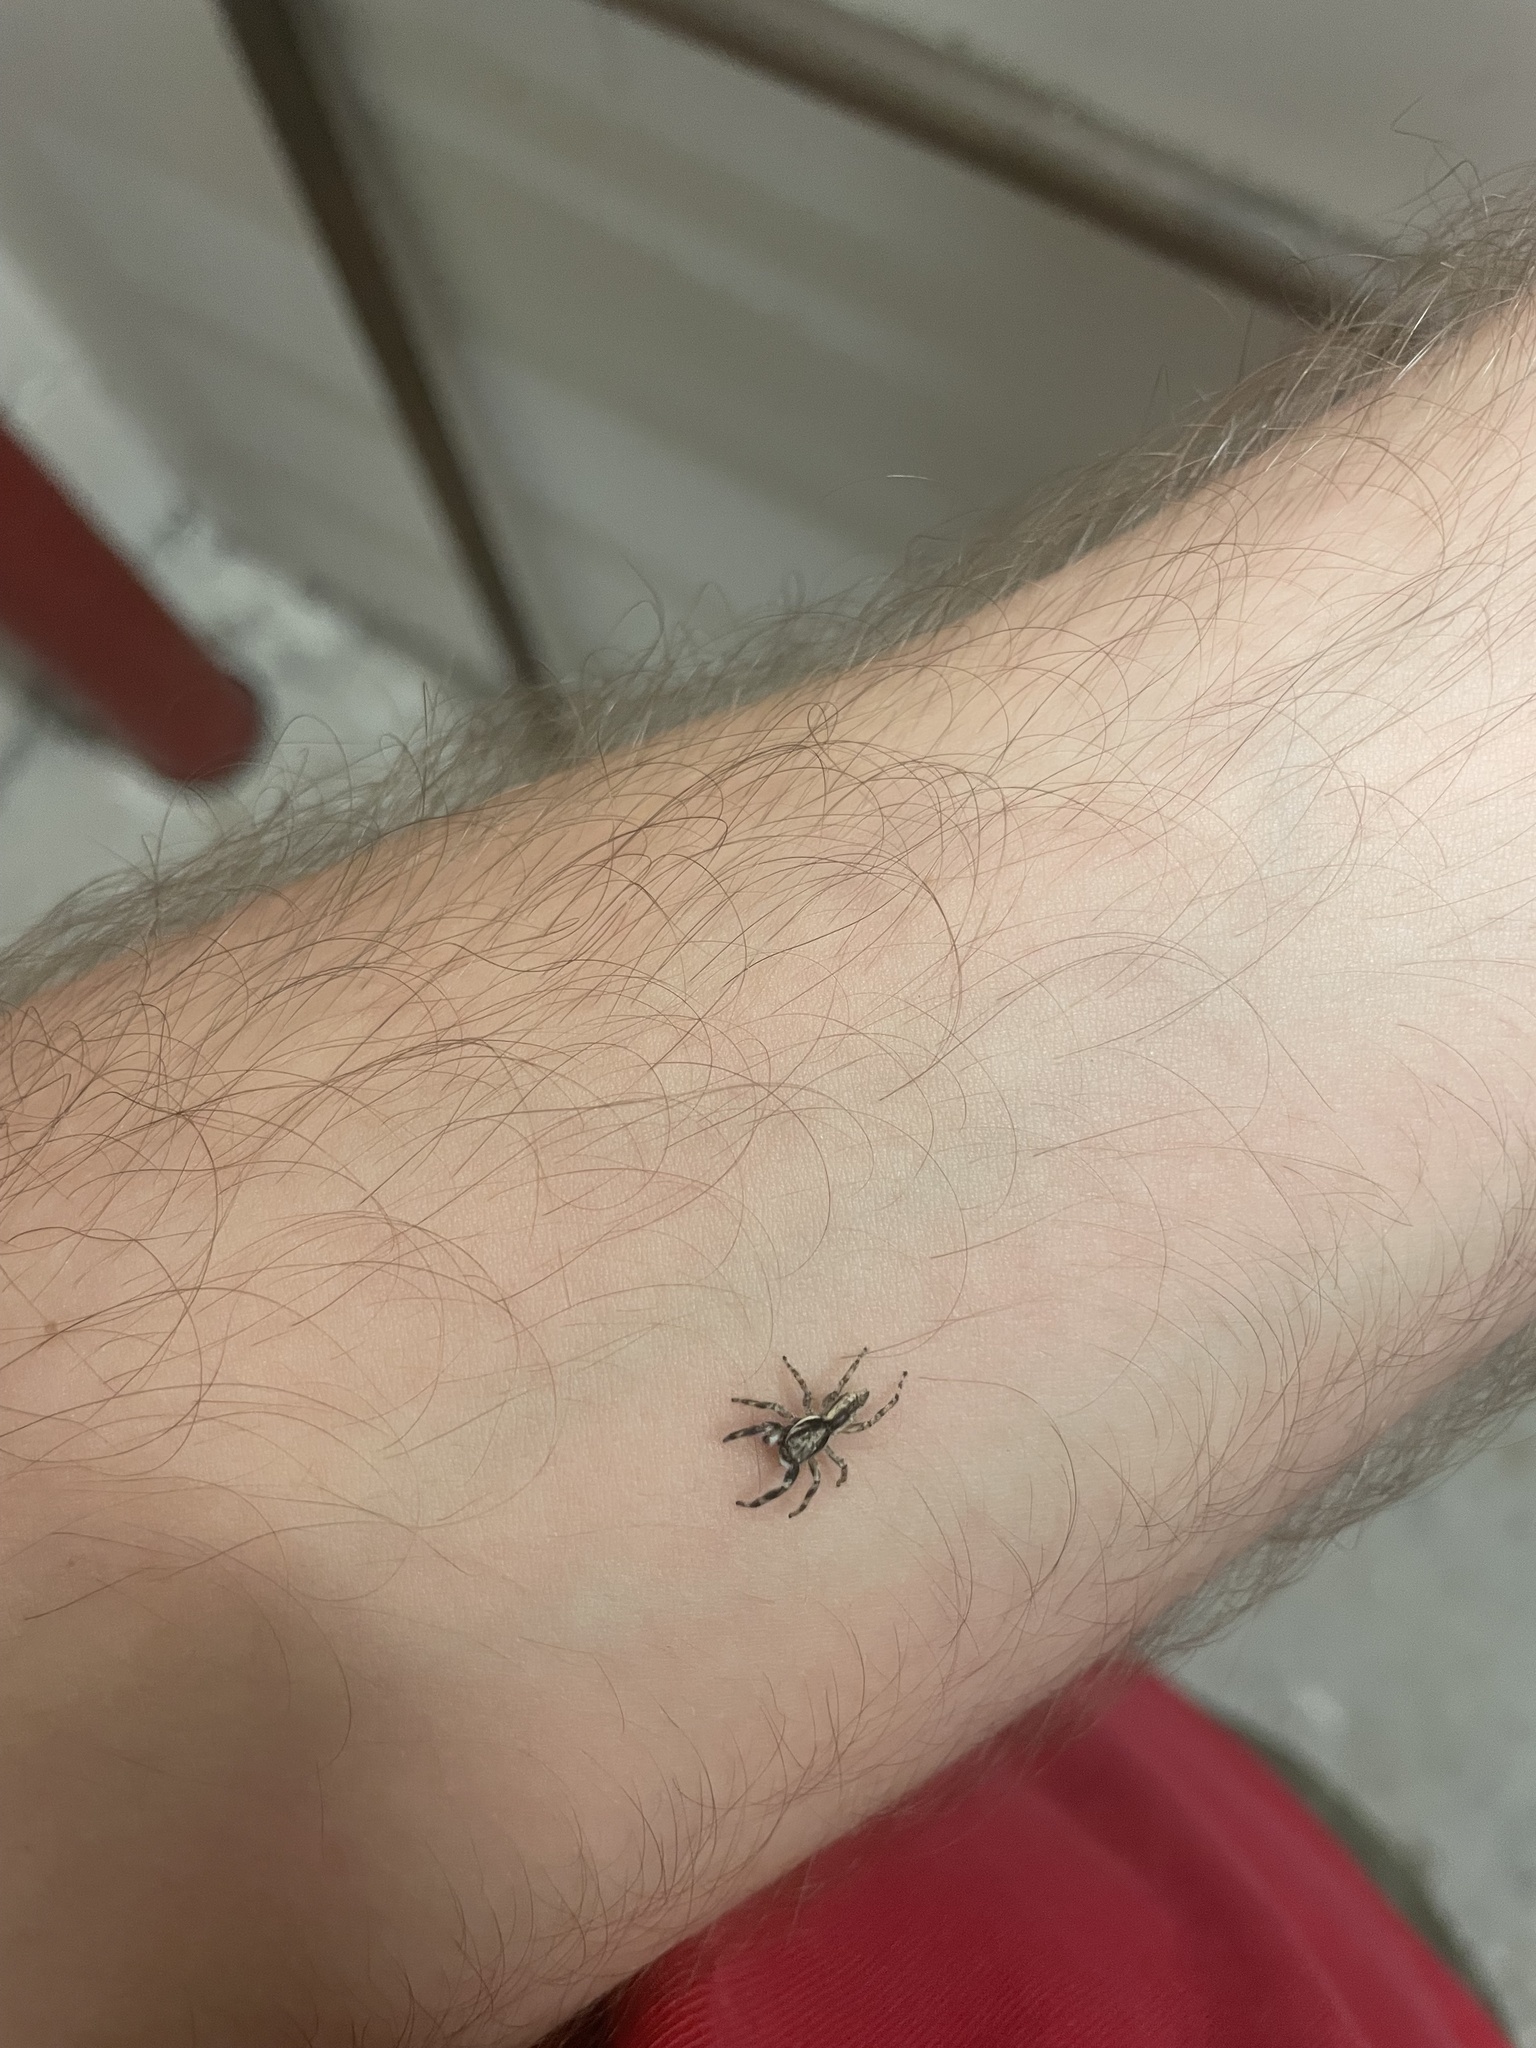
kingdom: Animalia
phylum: Arthropoda
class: Arachnida
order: Araneae
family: Salticidae
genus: Hentzia
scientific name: Hentzia grenada
